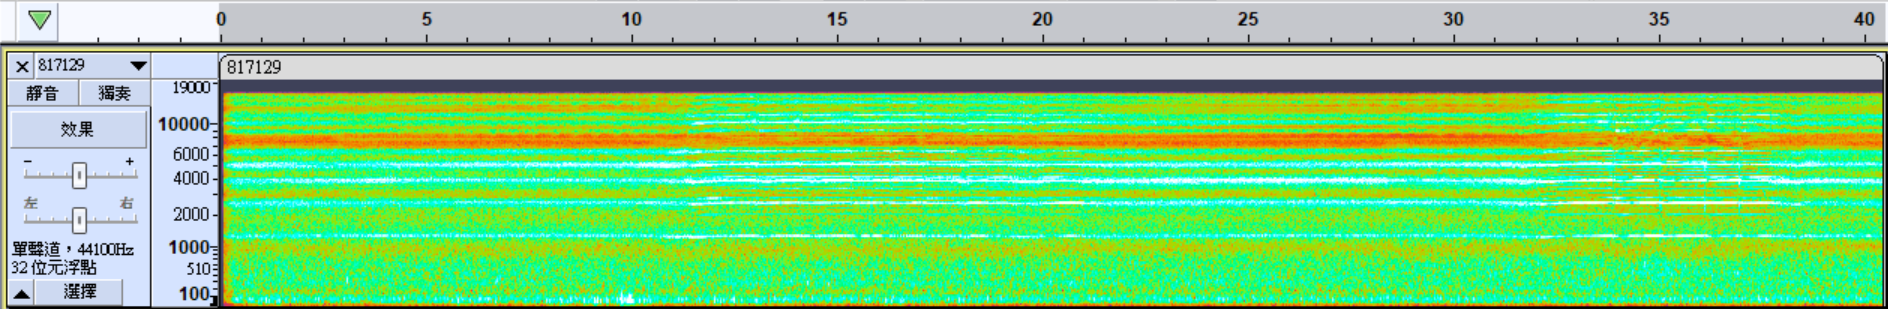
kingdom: Animalia
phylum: Arthropoda
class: Insecta
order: Hemiptera
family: Cicadidae
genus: Macrosemia
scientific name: Macrosemia kareisana
